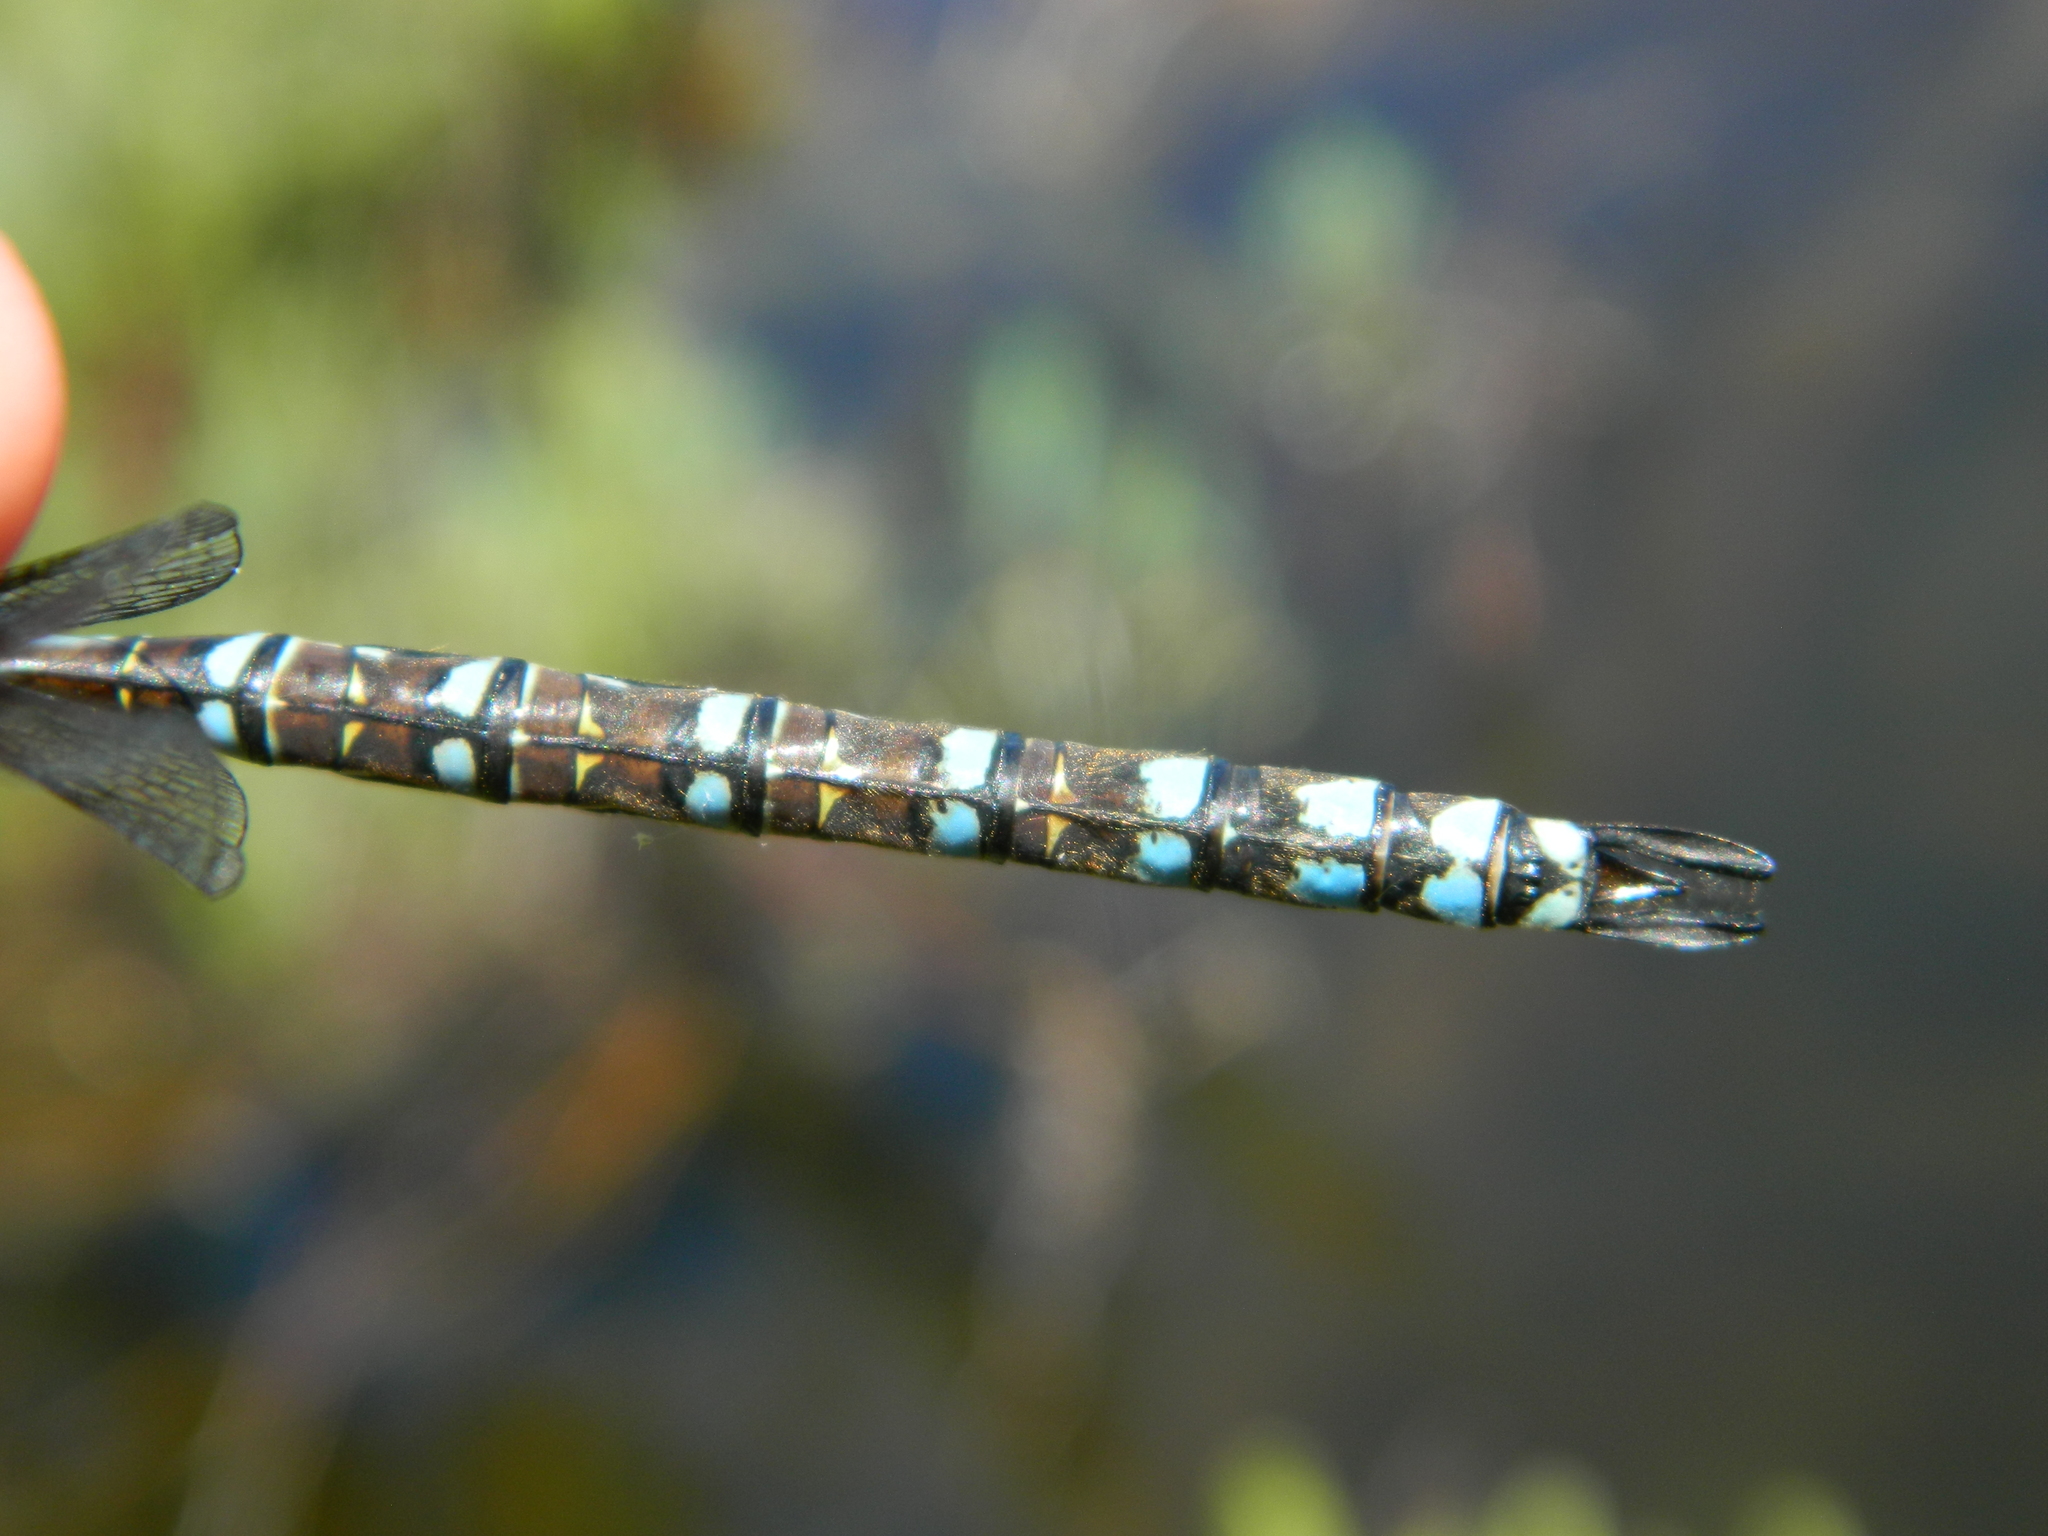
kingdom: Animalia
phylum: Arthropoda
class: Insecta
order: Odonata
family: Aeshnidae
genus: Aeshna
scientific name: Aeshna eremita
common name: Lake darner
